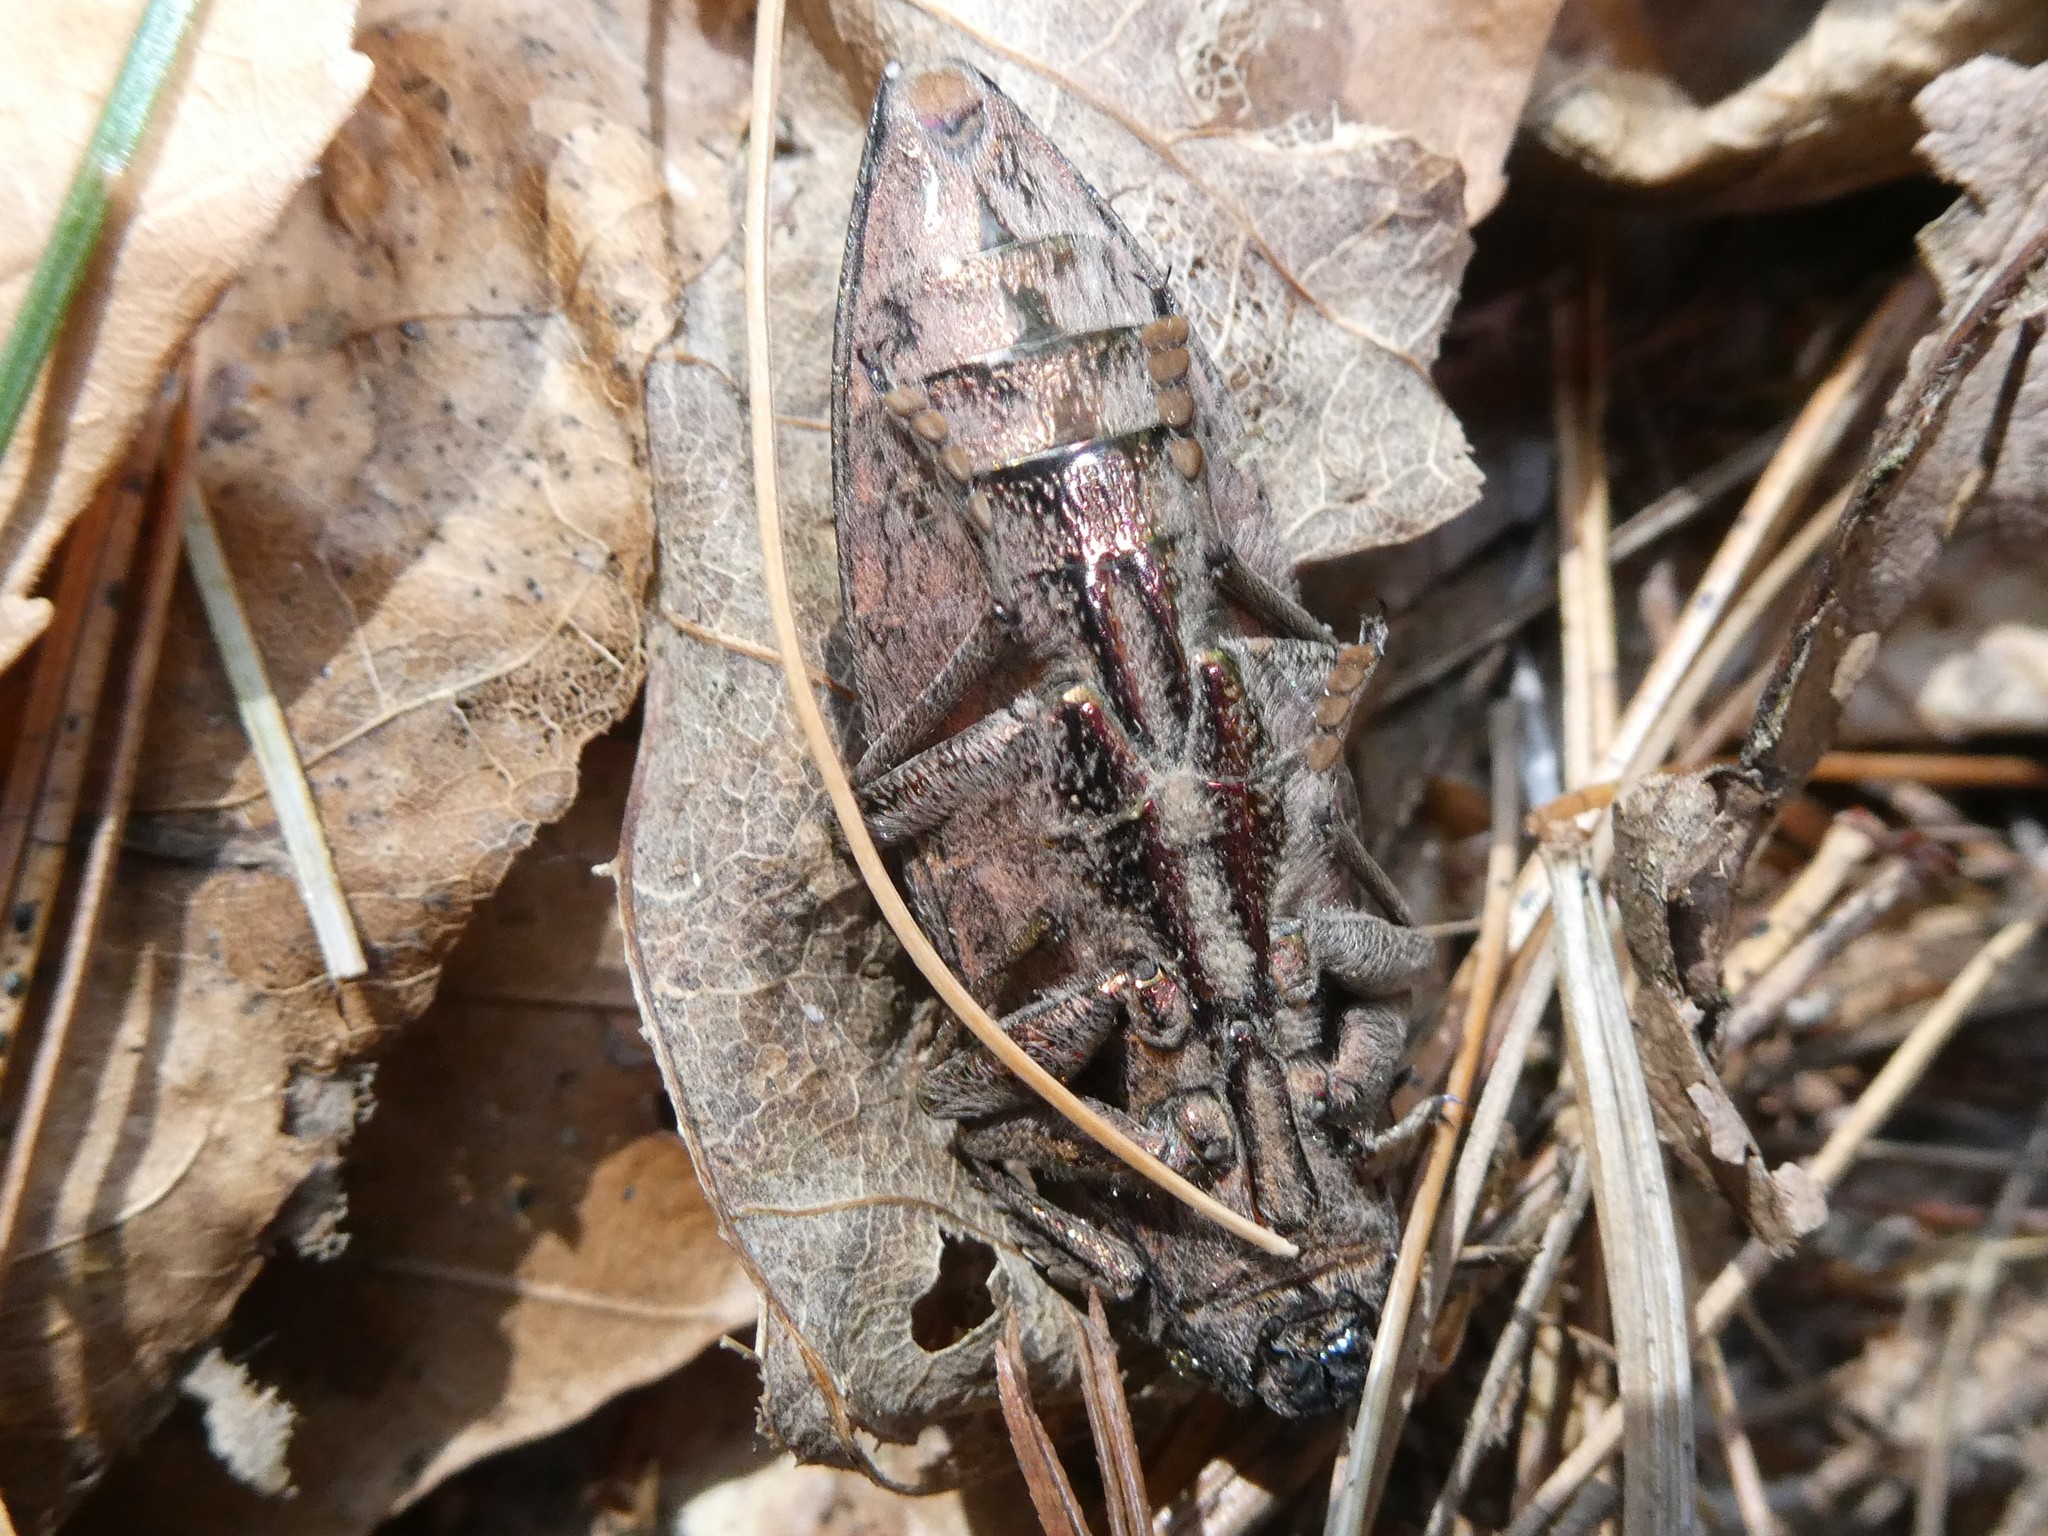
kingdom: Animalia
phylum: Arthropoda
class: Insecta
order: Coleoptera
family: Buprestidae
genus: Chalcophora
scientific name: Chalcophora fortis
